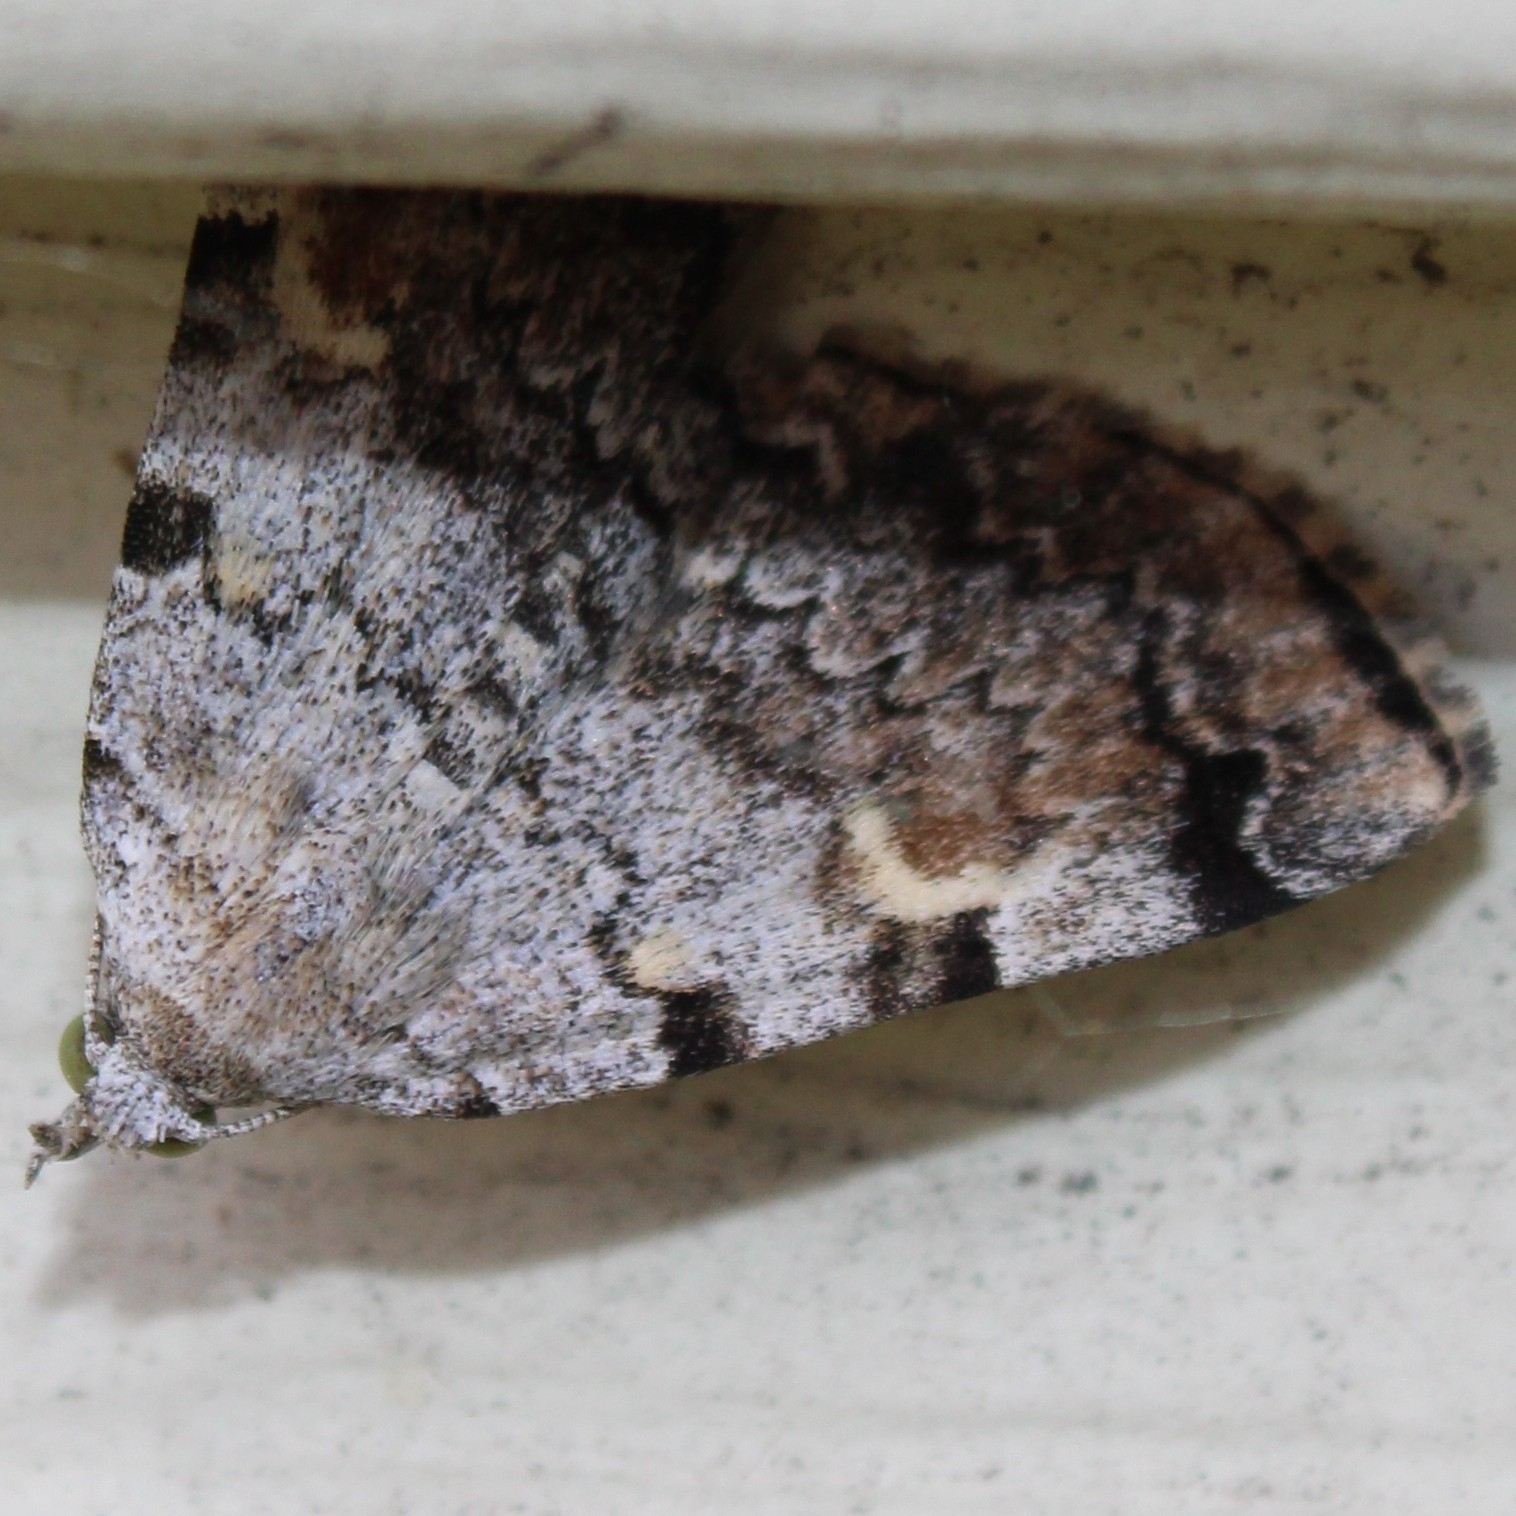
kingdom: Animalia
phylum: Arthropoda
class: Insecta
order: Lepidoptera
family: Erebidae
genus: Idia
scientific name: Idia americalis
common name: American idia moth
